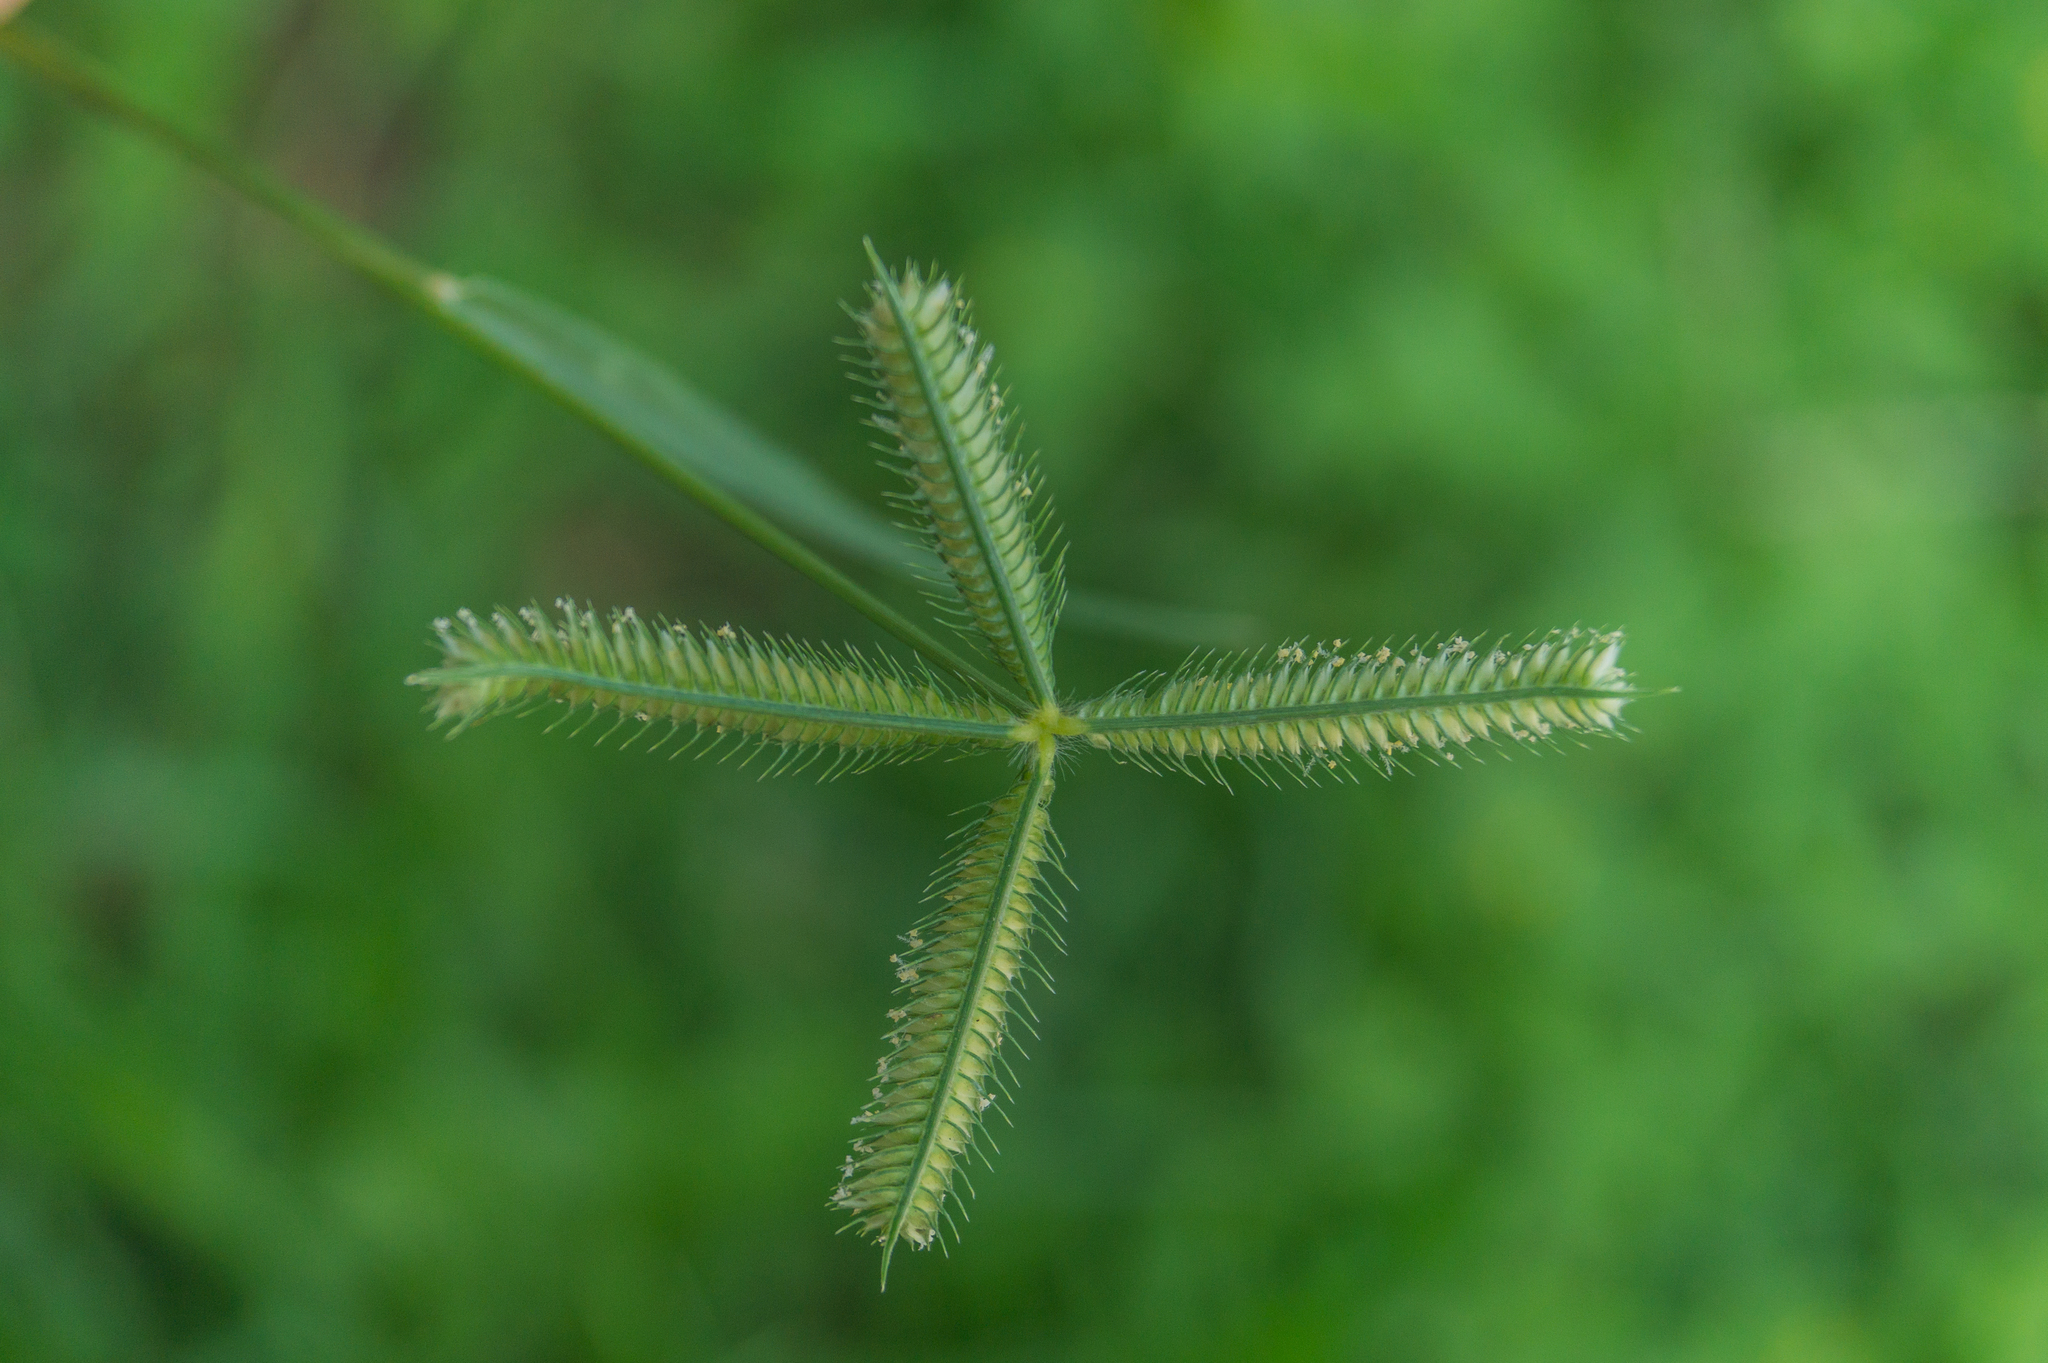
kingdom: Plantae
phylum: Tracheophyta
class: Liliopsida
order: Poales
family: Poaceae
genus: Dactyloctenium
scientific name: Dactyloctenium aegyptium
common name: Egyptian grass
